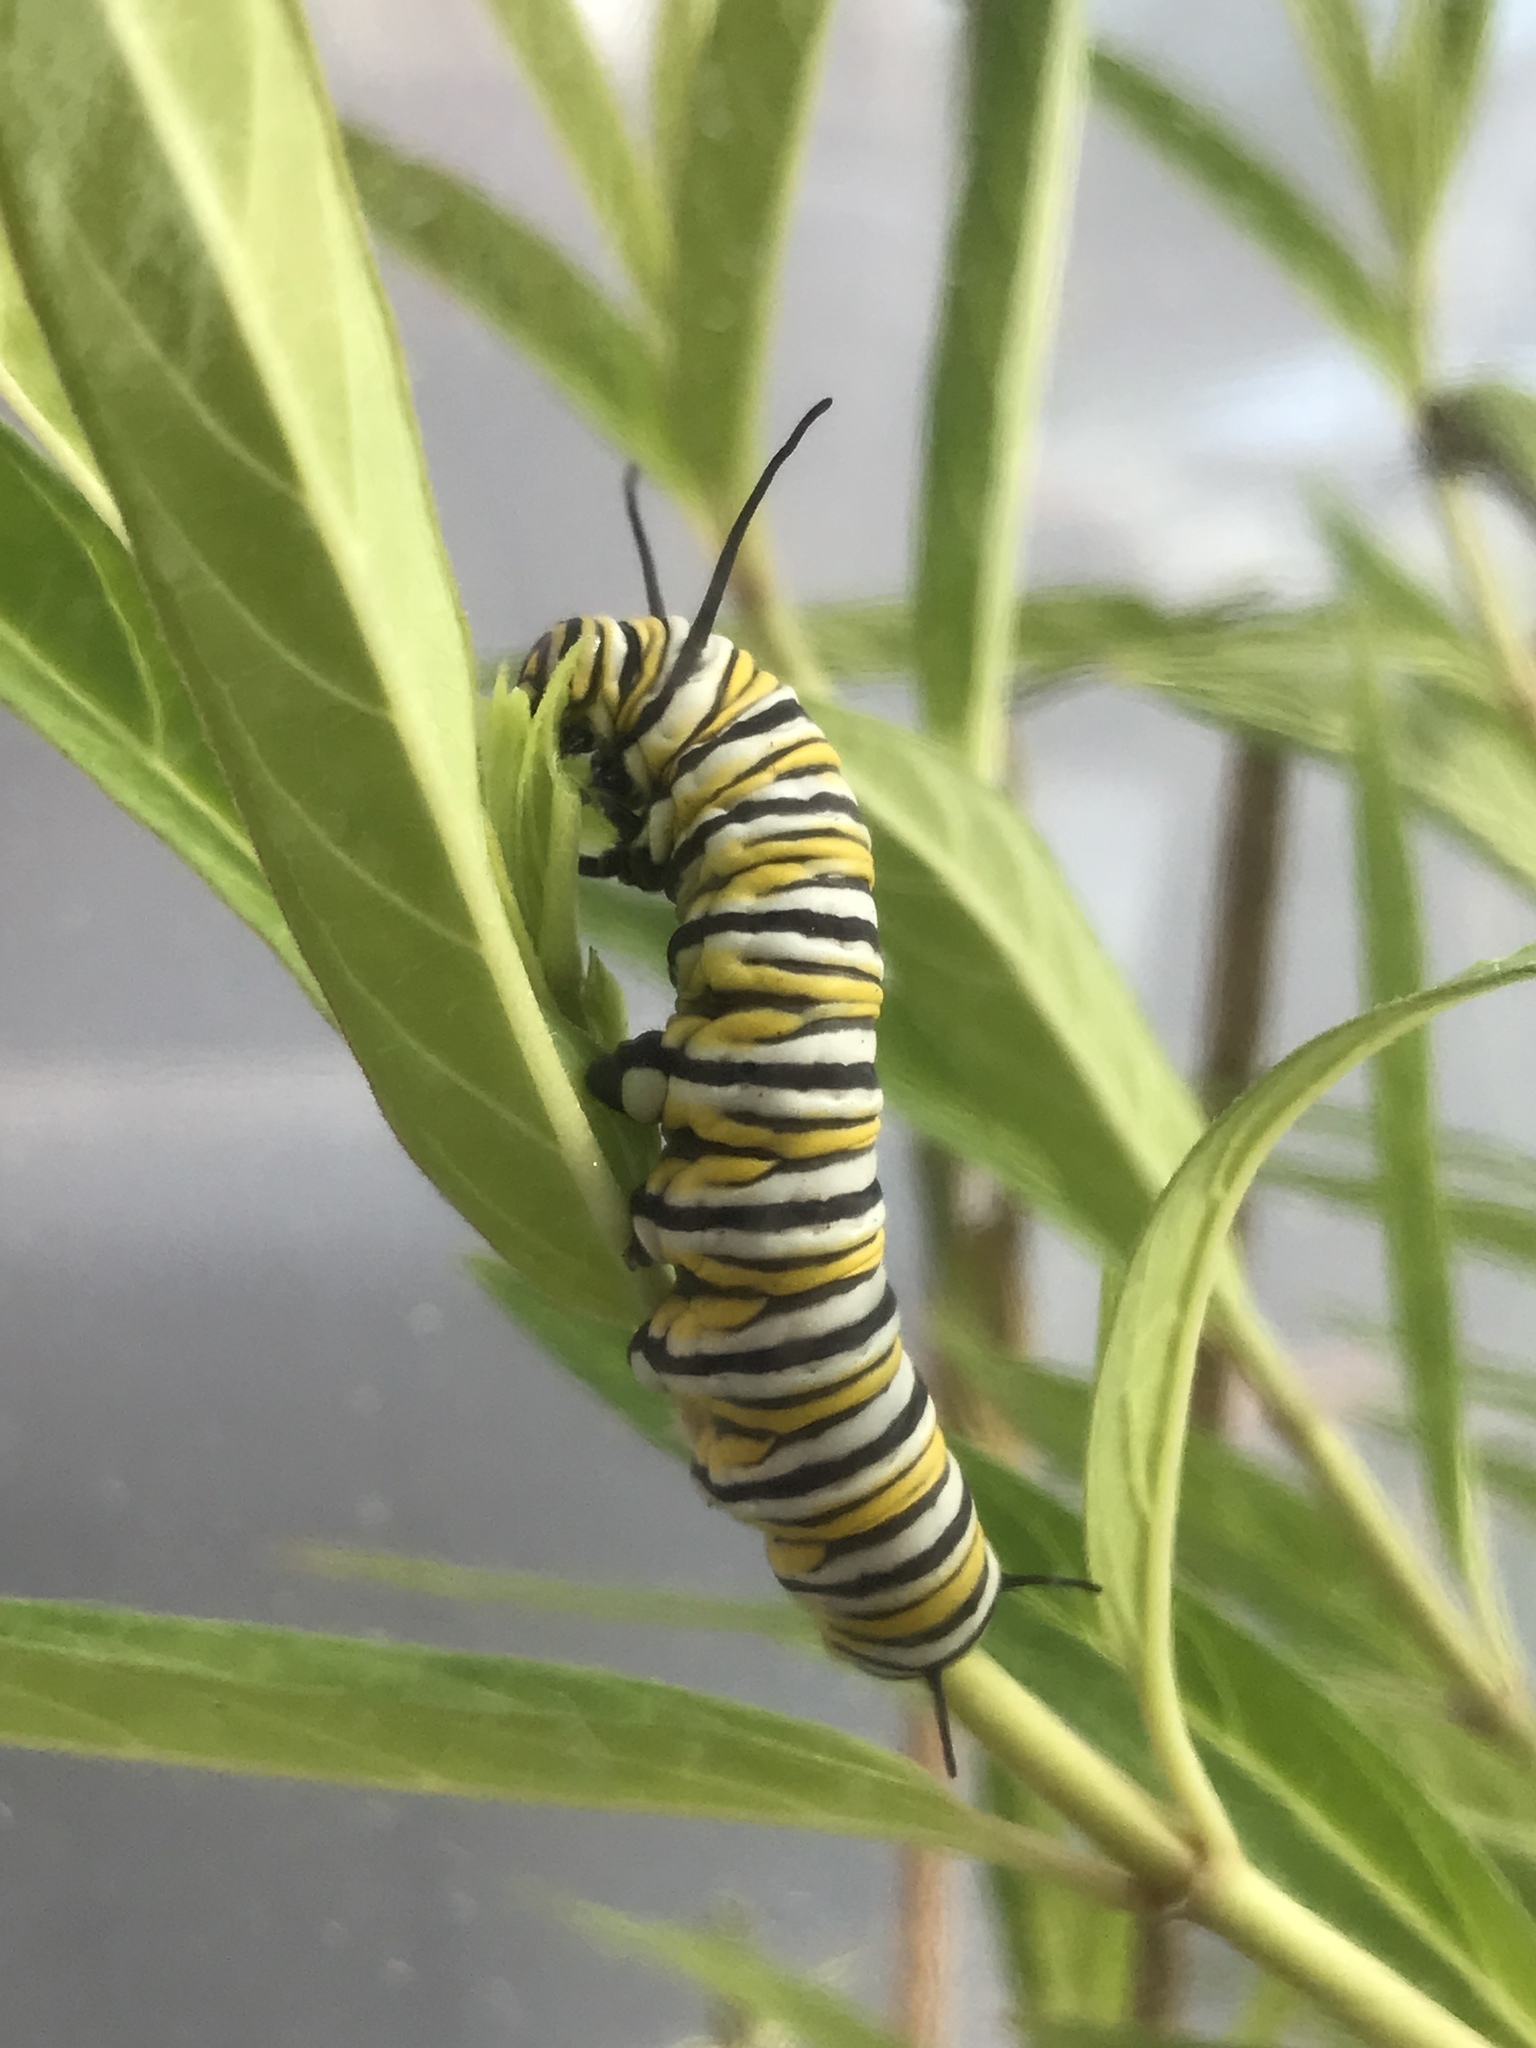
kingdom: Animalia
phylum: Arthropoda
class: Insecta
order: Lepidoptera
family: Nymphalidae
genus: Danaus
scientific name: Danaus plexippus
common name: Monarch
